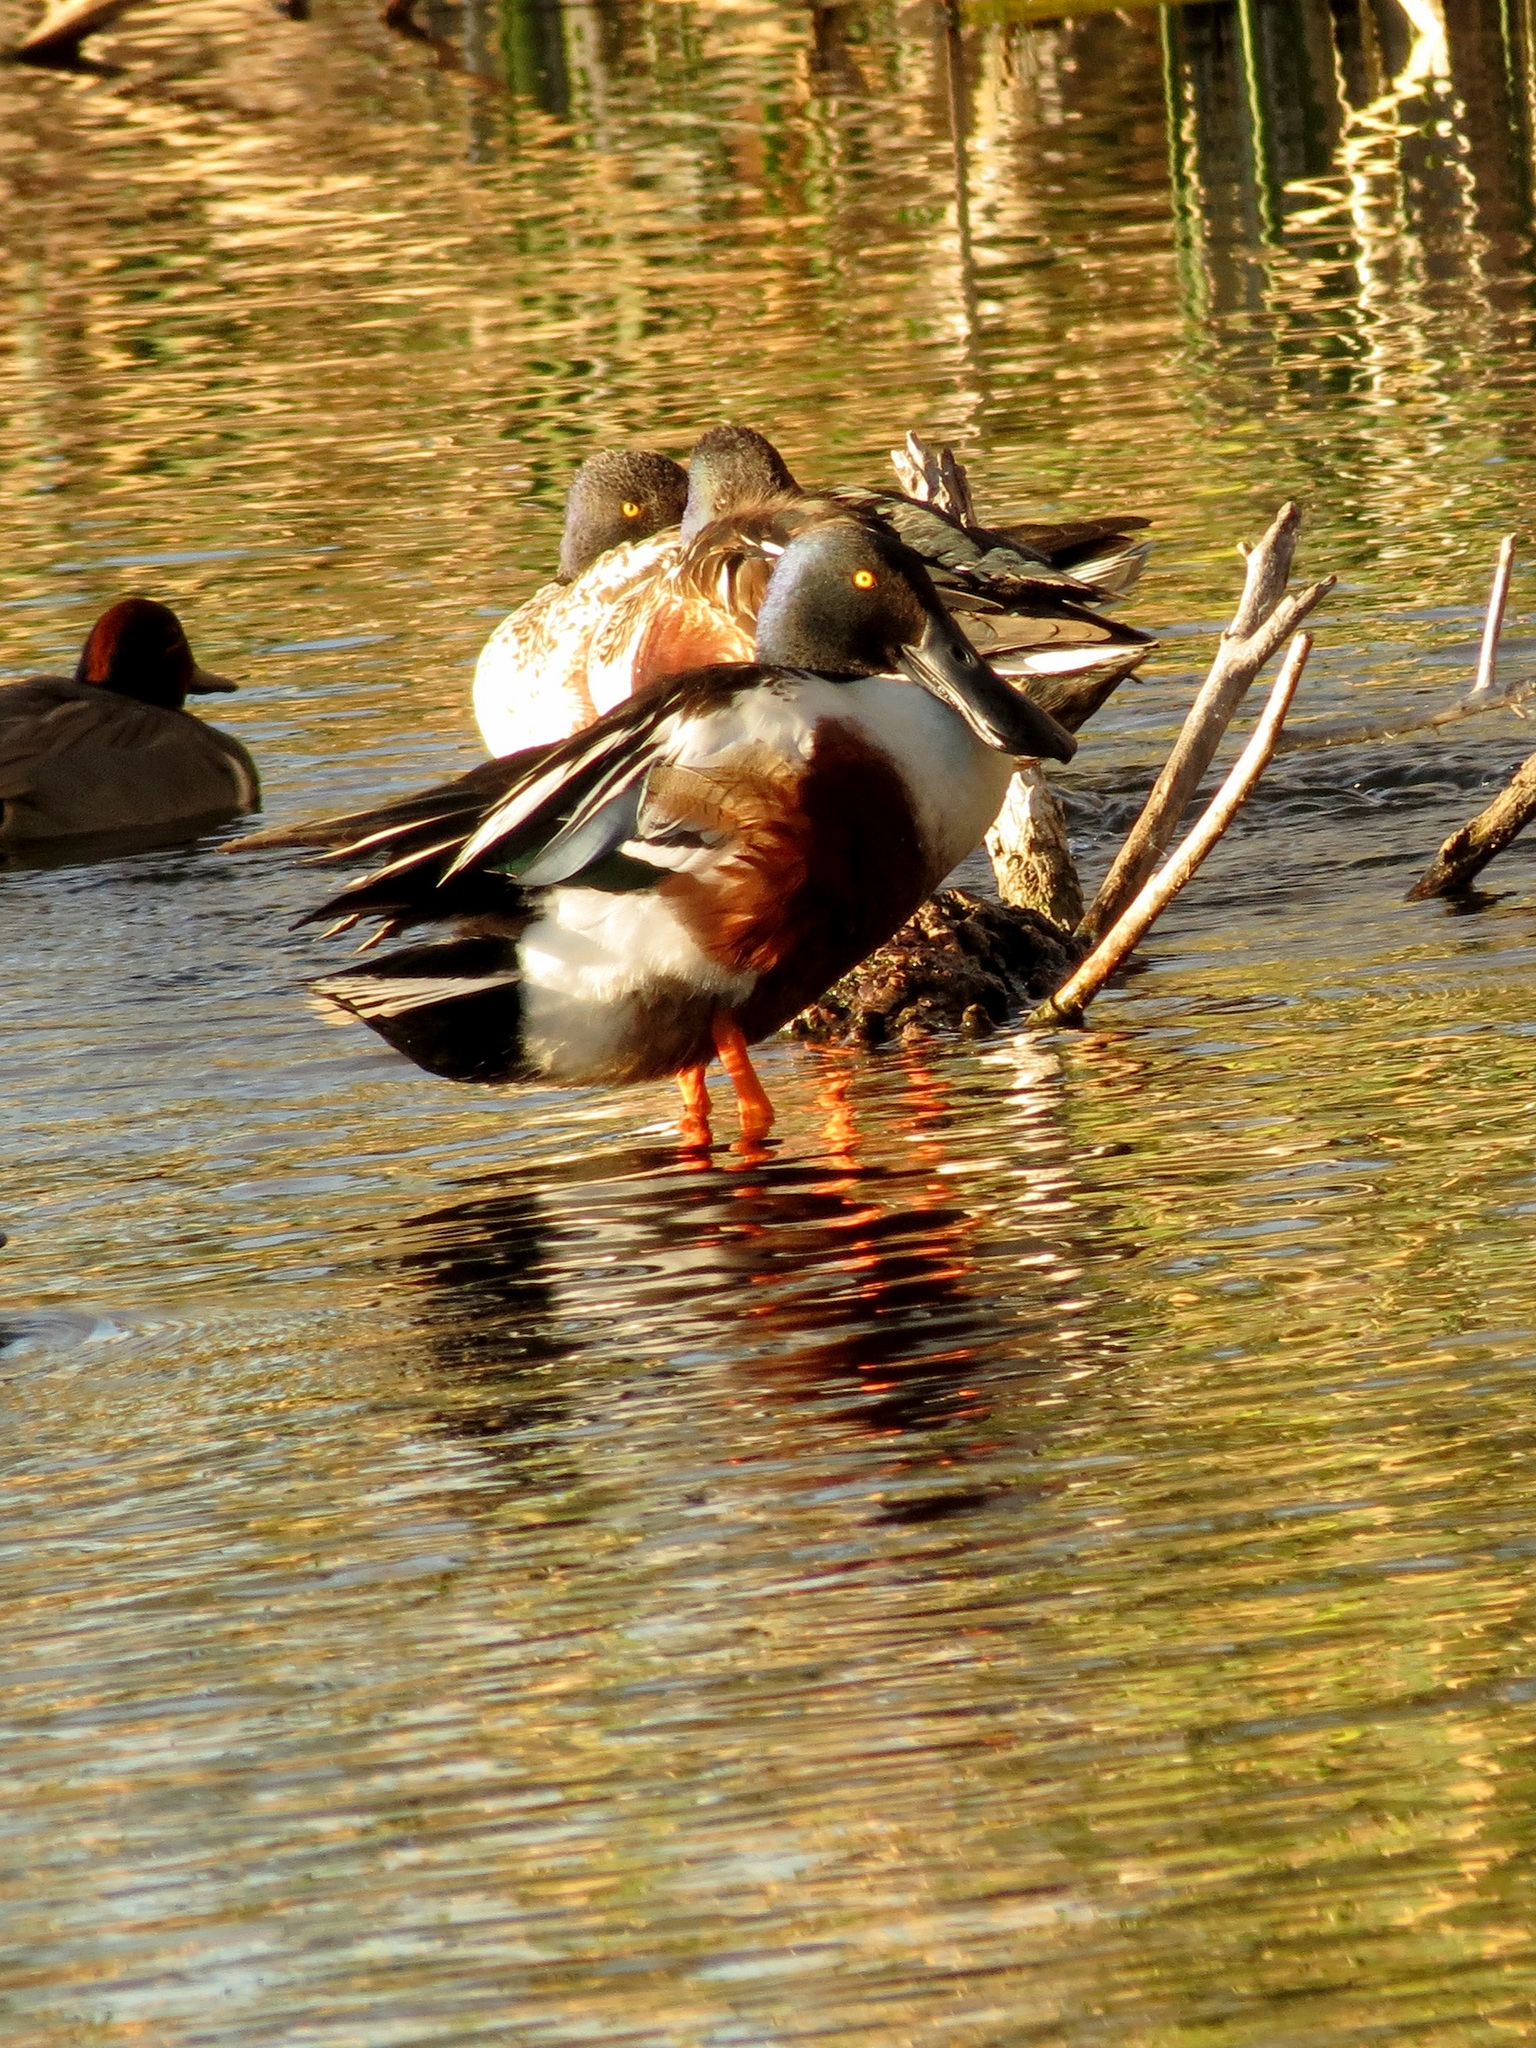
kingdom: Animalia
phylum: Chordata
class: Aves
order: Anseriformes
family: Anatidae
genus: Spatula
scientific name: Spatula clypeata
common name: Northern shoveler
